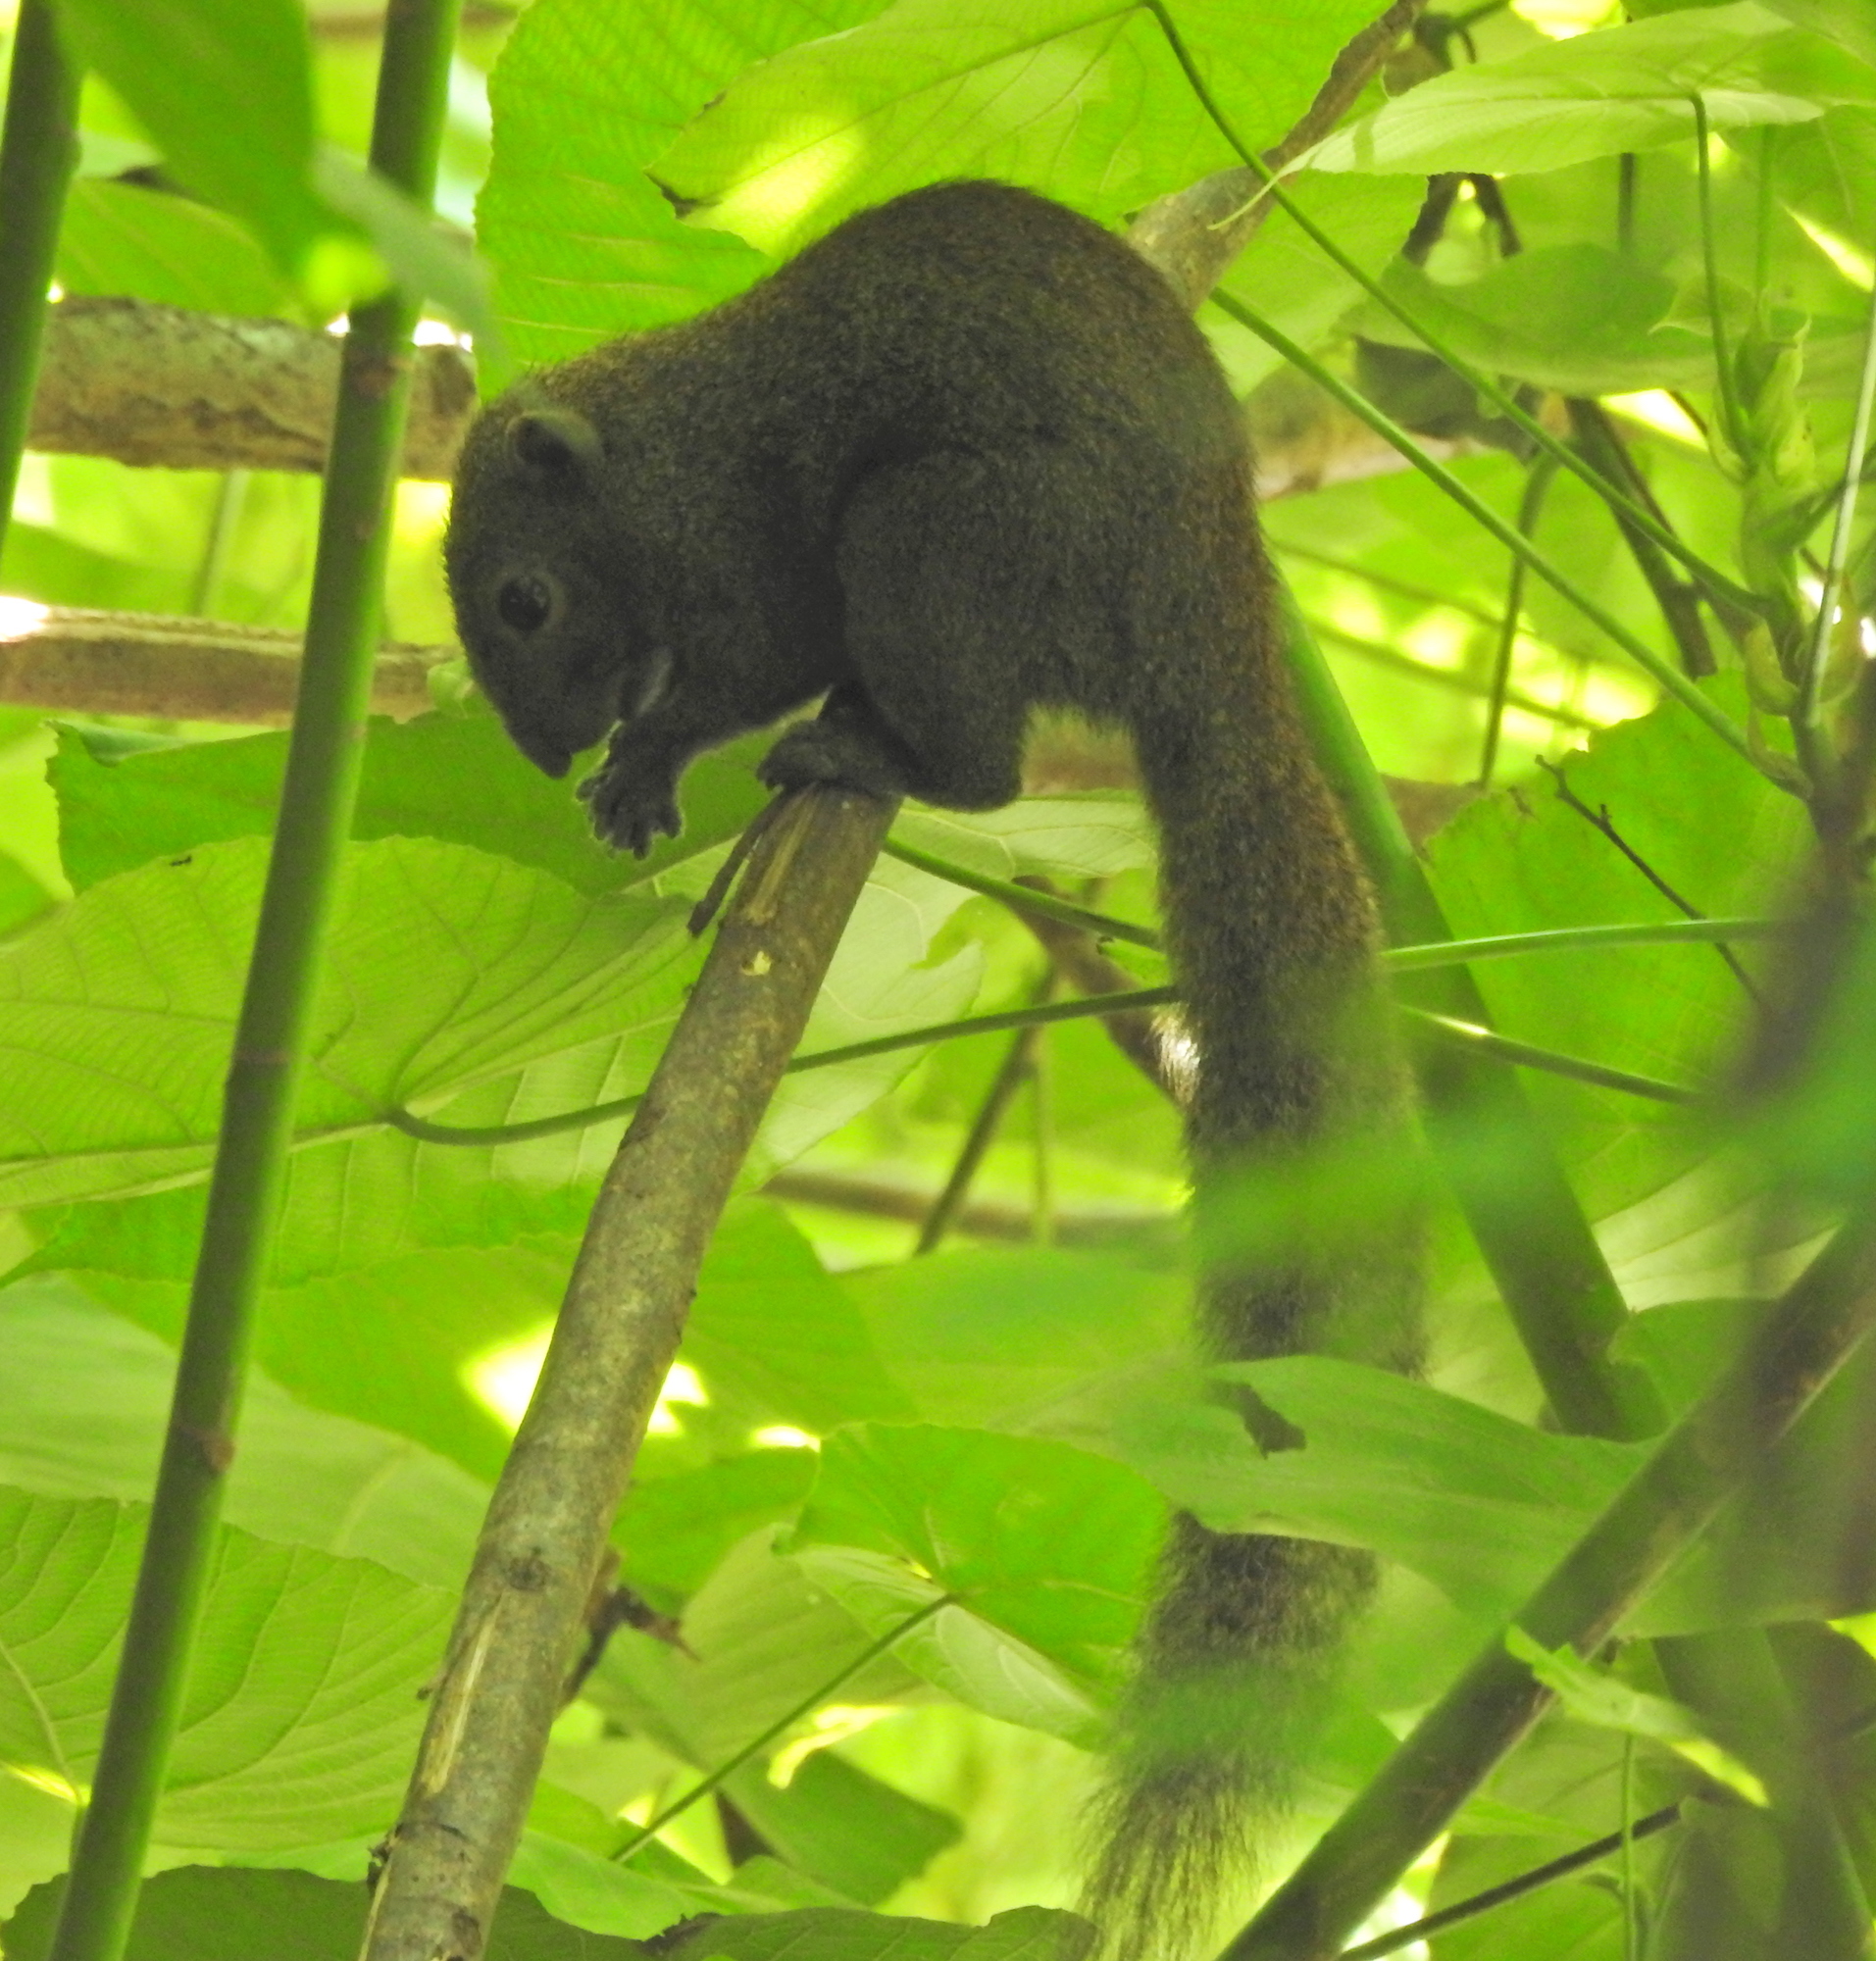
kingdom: Animalia
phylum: Chordata
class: Mammalia
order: Rodentia
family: Sciuridae
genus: Callosciurus
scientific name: Callosciurus caniceps
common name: Gray-bellied squirrel
